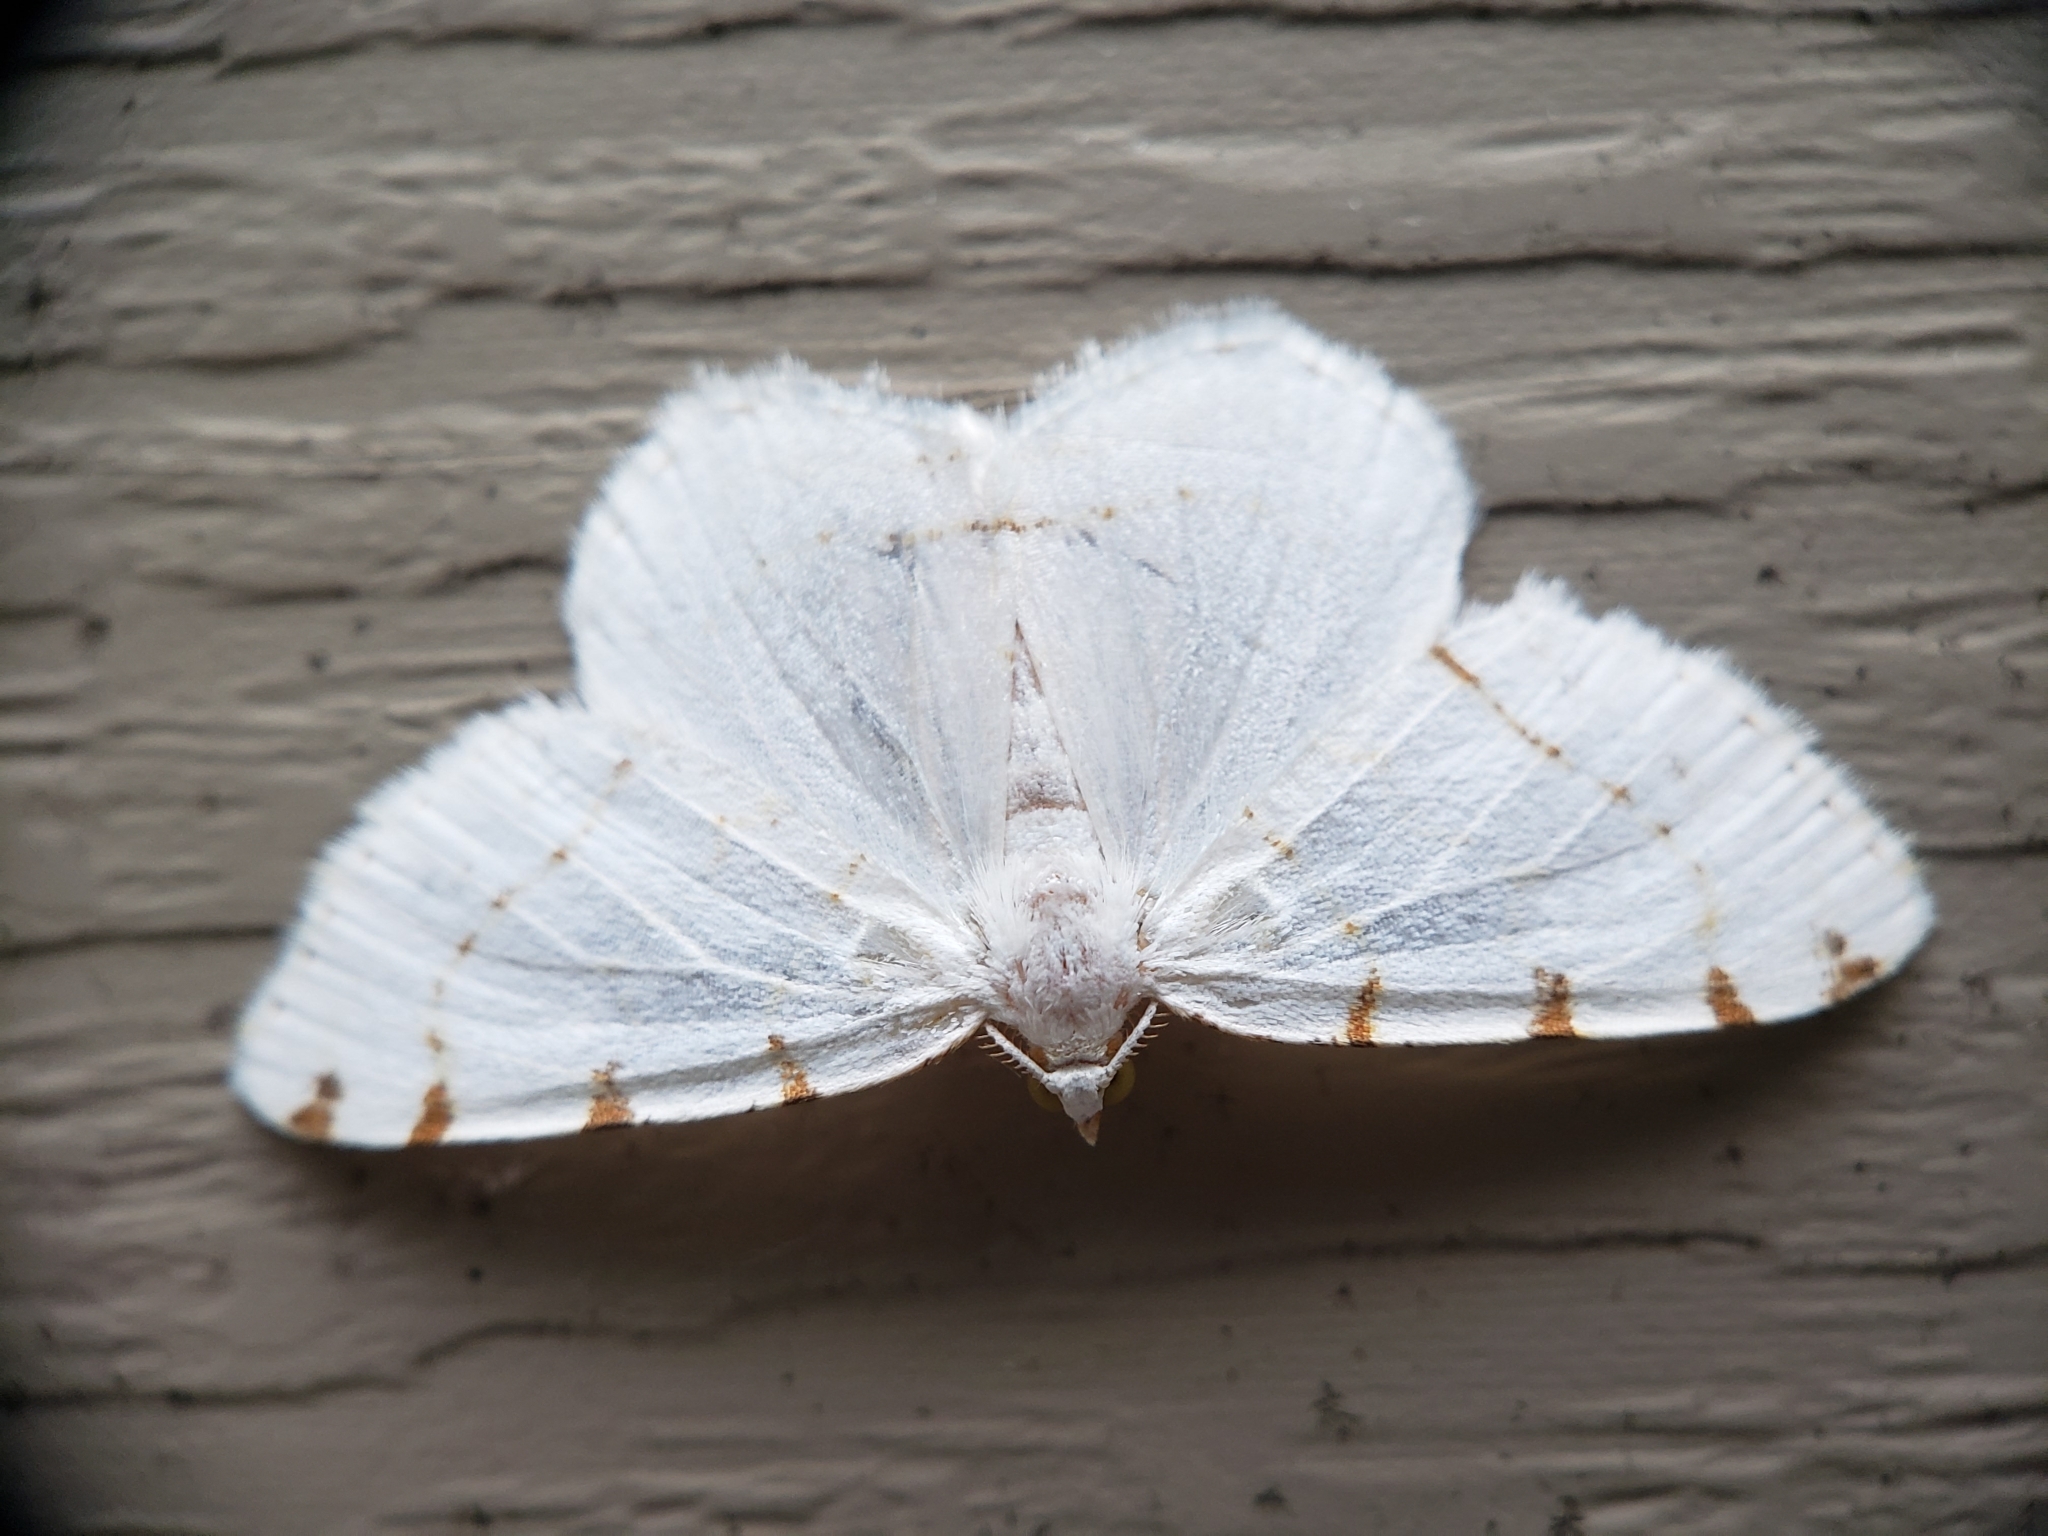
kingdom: Animalia
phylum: Arthropoda
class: Insecta
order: Lepidoptera
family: Geometridae
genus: Macaria
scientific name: Macaria pustularia
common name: Lesser maple spanworm moth
